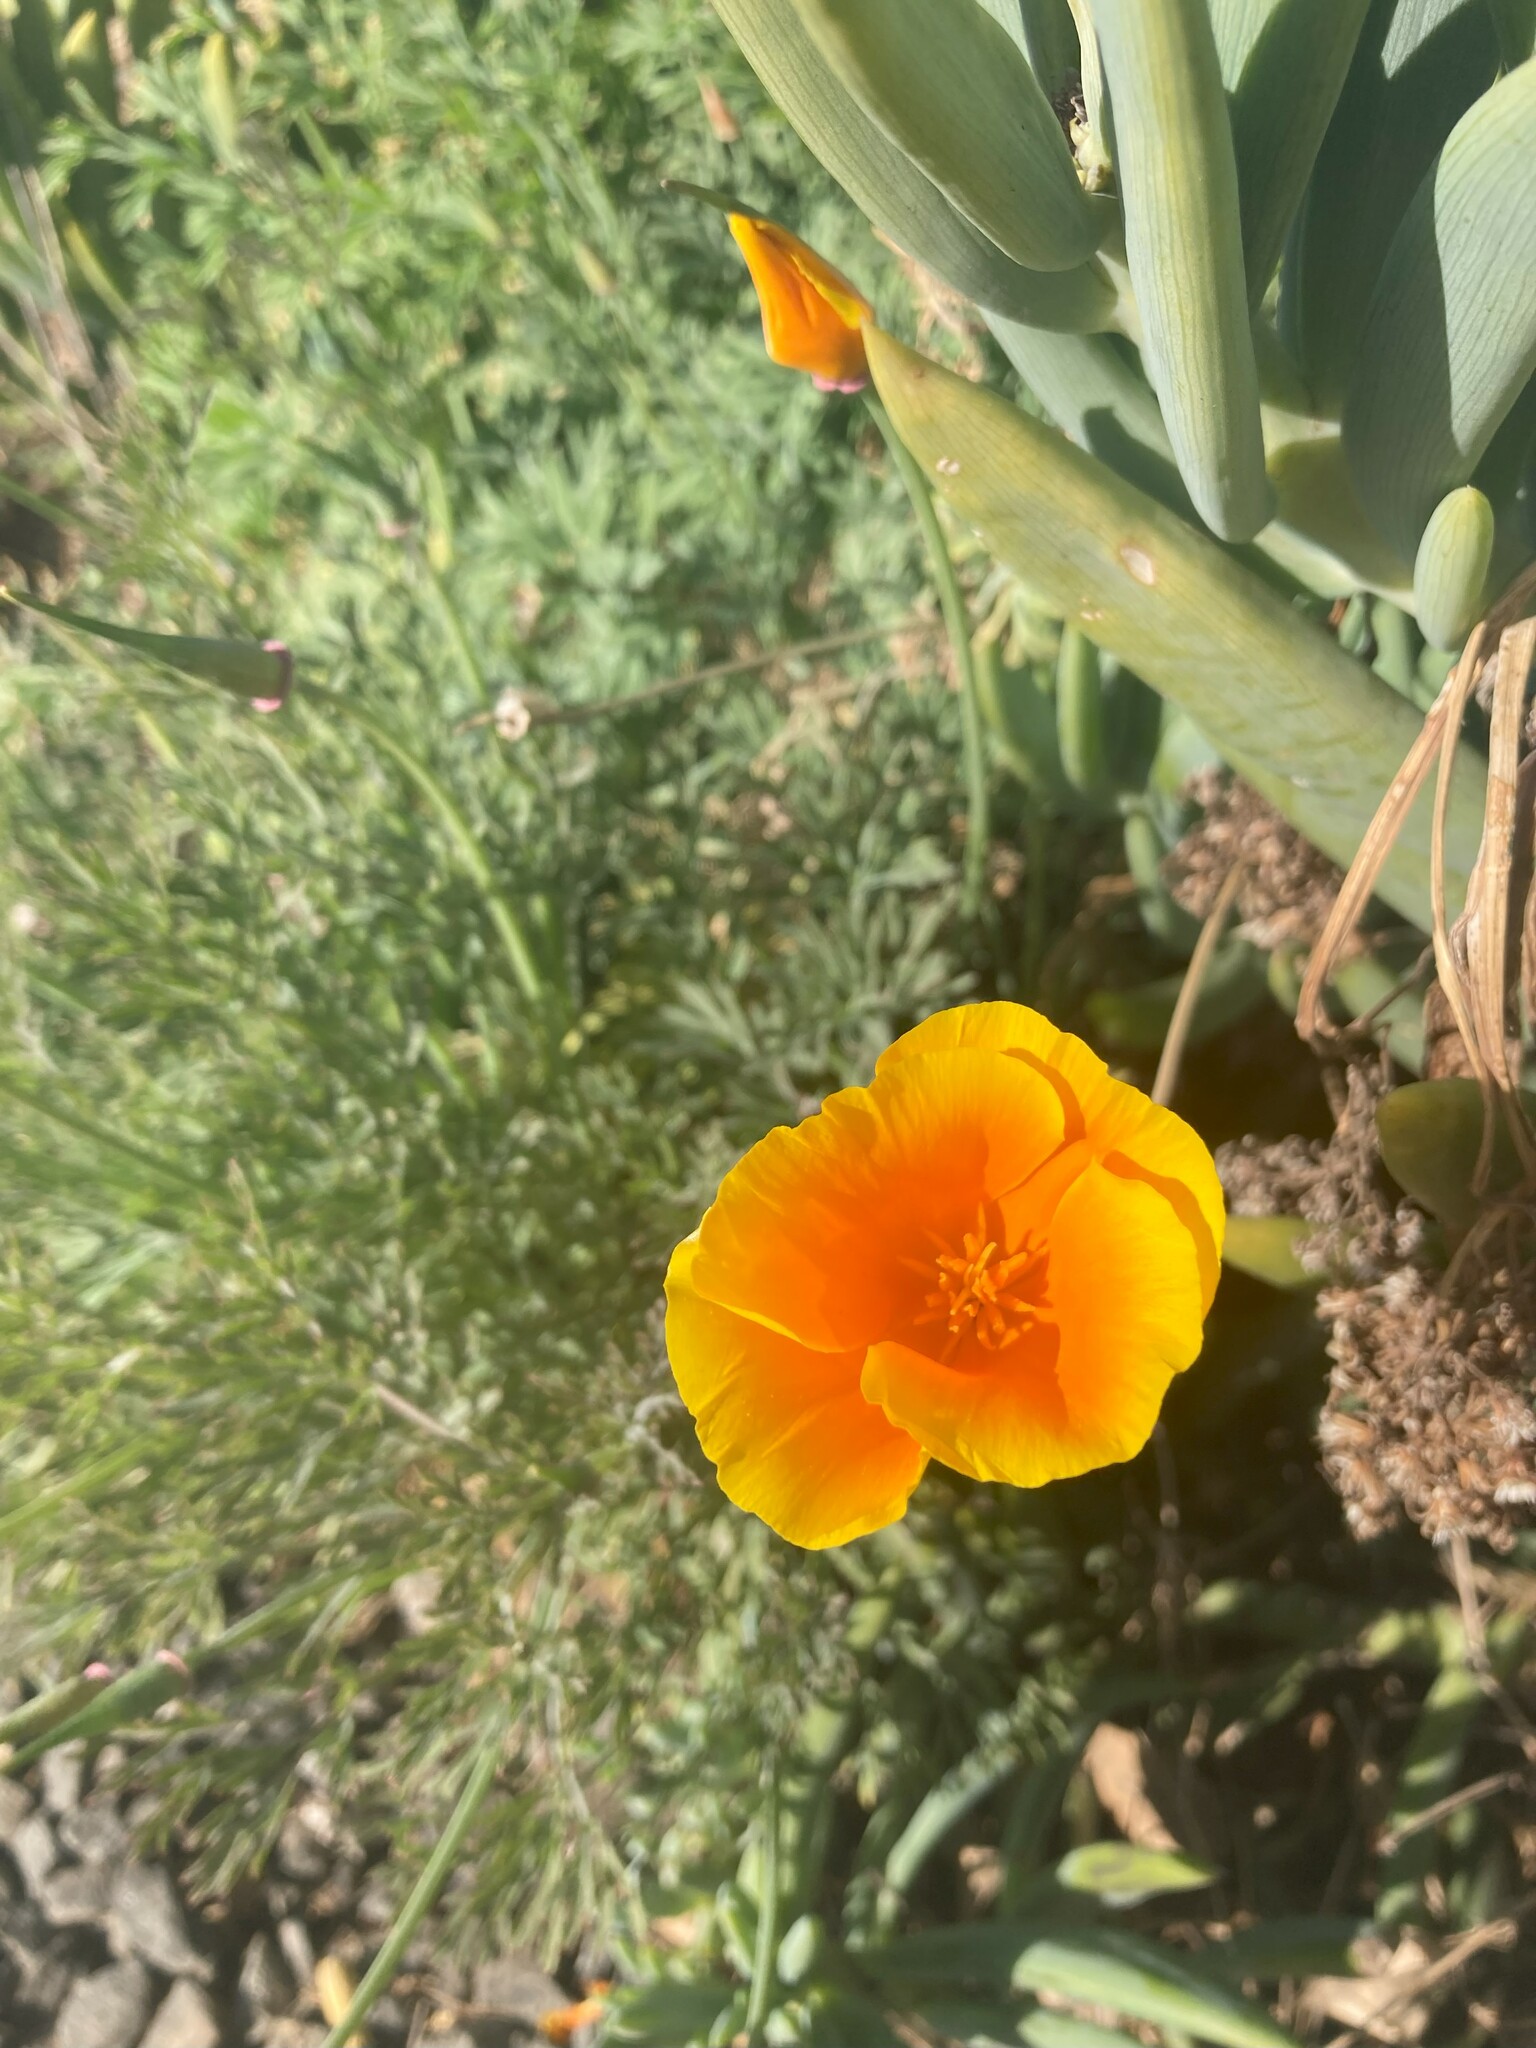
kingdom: Plantae
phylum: Tracheophyta
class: Magnoliopsida
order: Ranunculales
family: Papaveraceae
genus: Eschscholzia
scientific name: Eschscholzia californica
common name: California poppy
